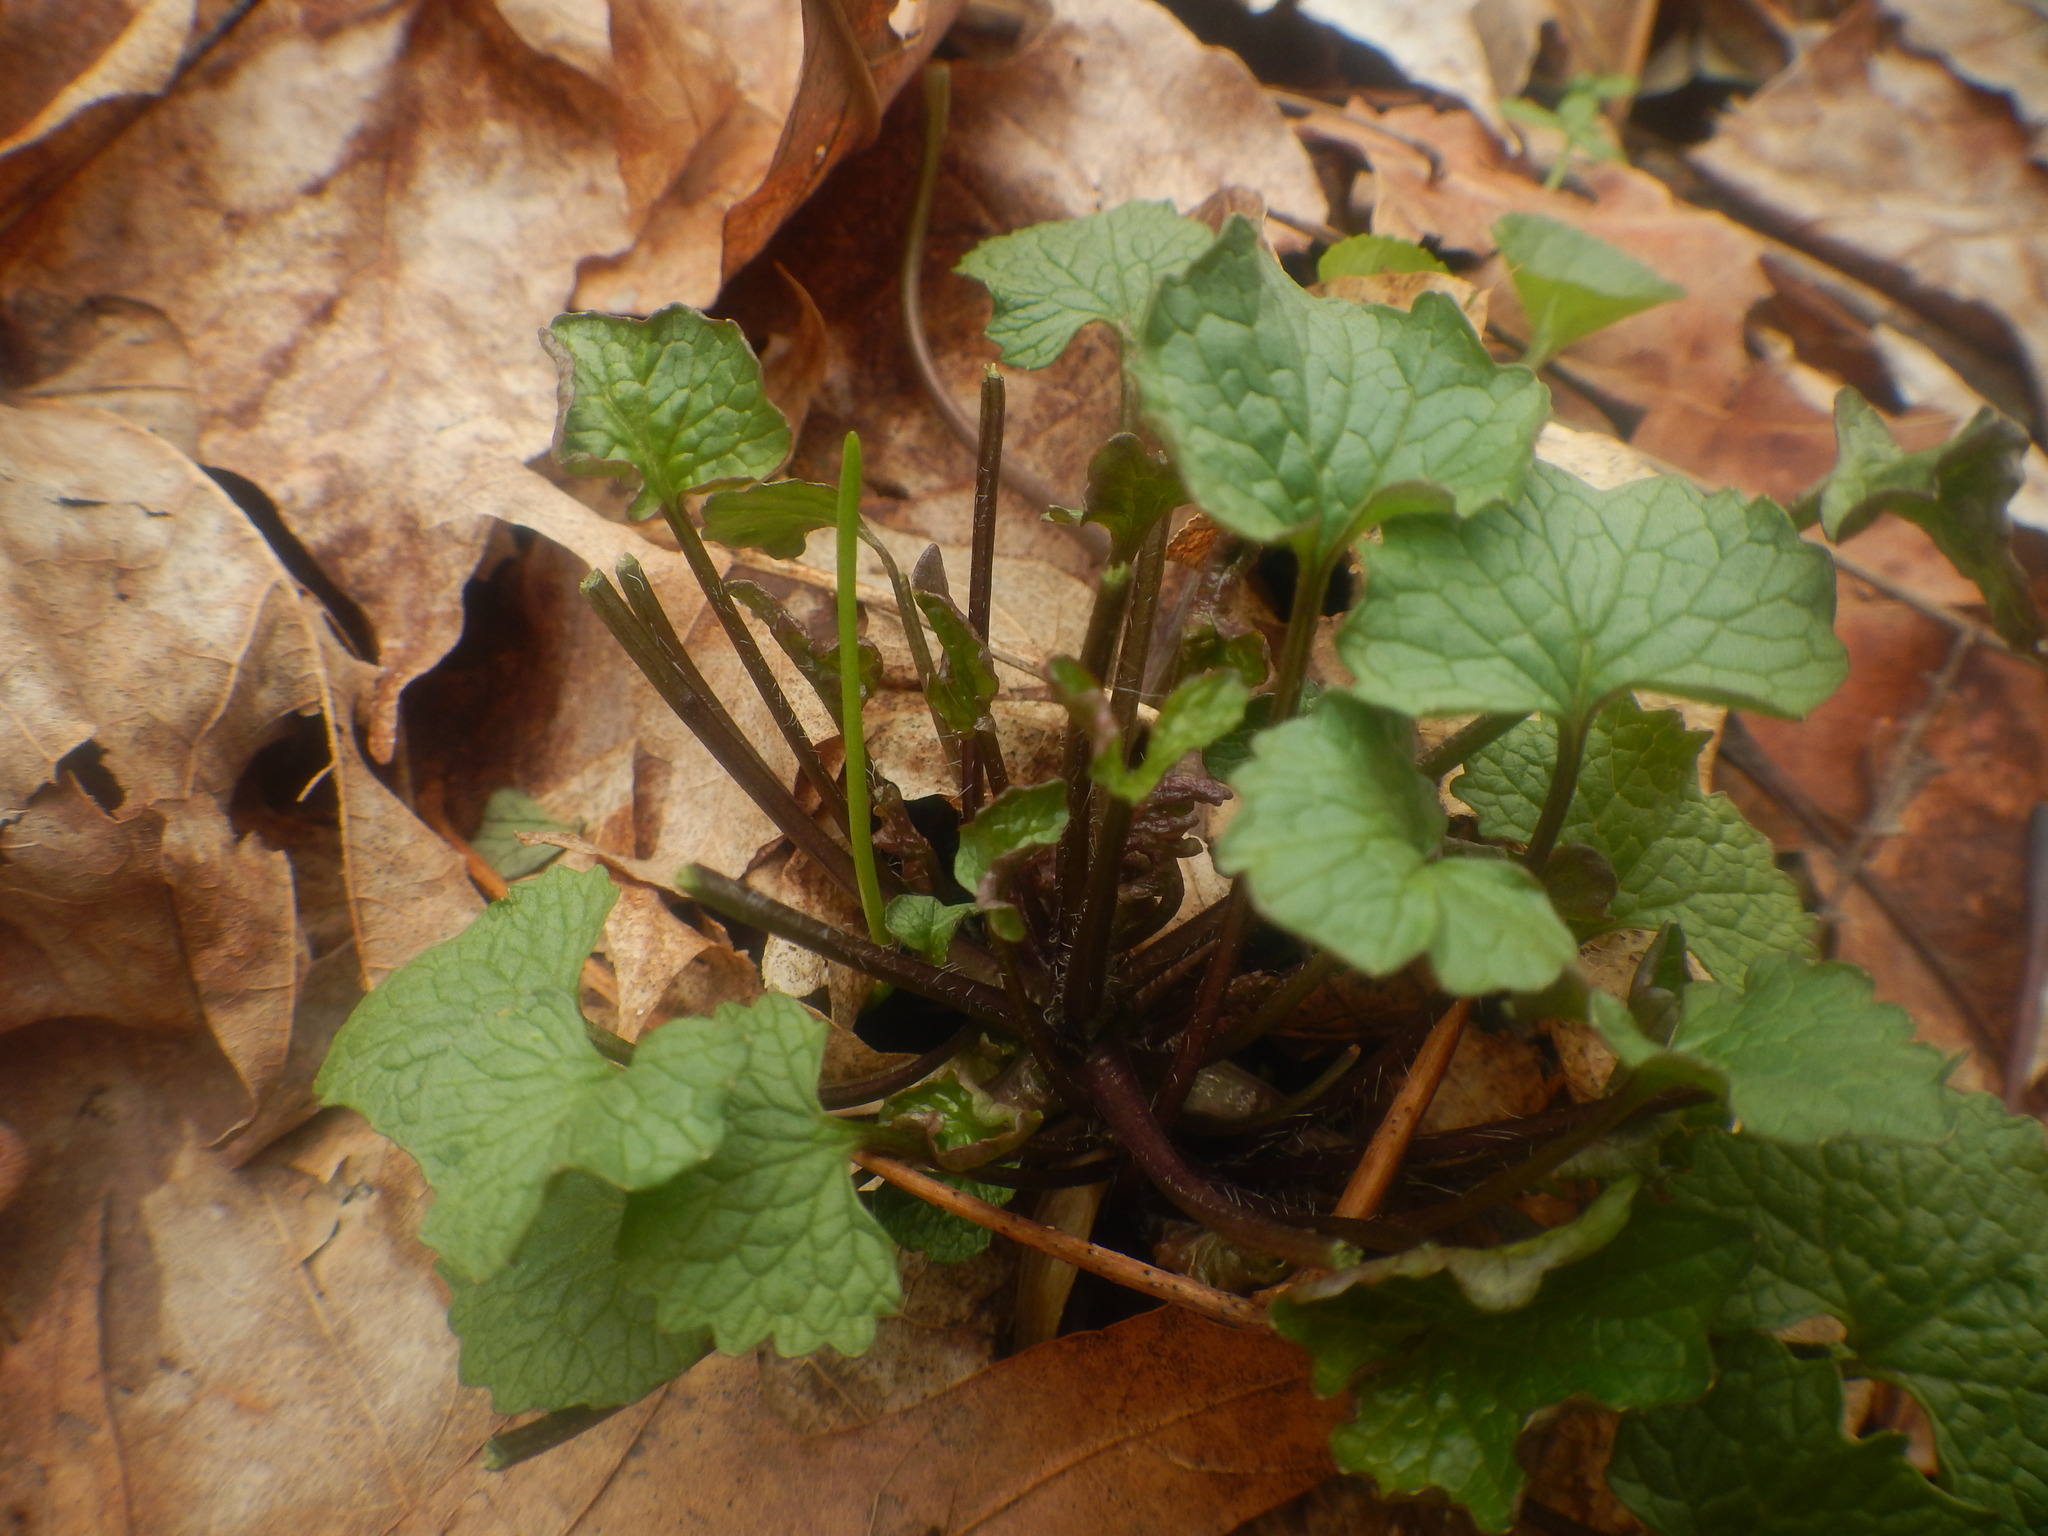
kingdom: Plantae
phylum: Tracheophyta
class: Magnoliopsida
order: Brassicales
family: Brassicaceae
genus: Alliaria
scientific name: Alliaria petiolata
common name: Garlic mustard
